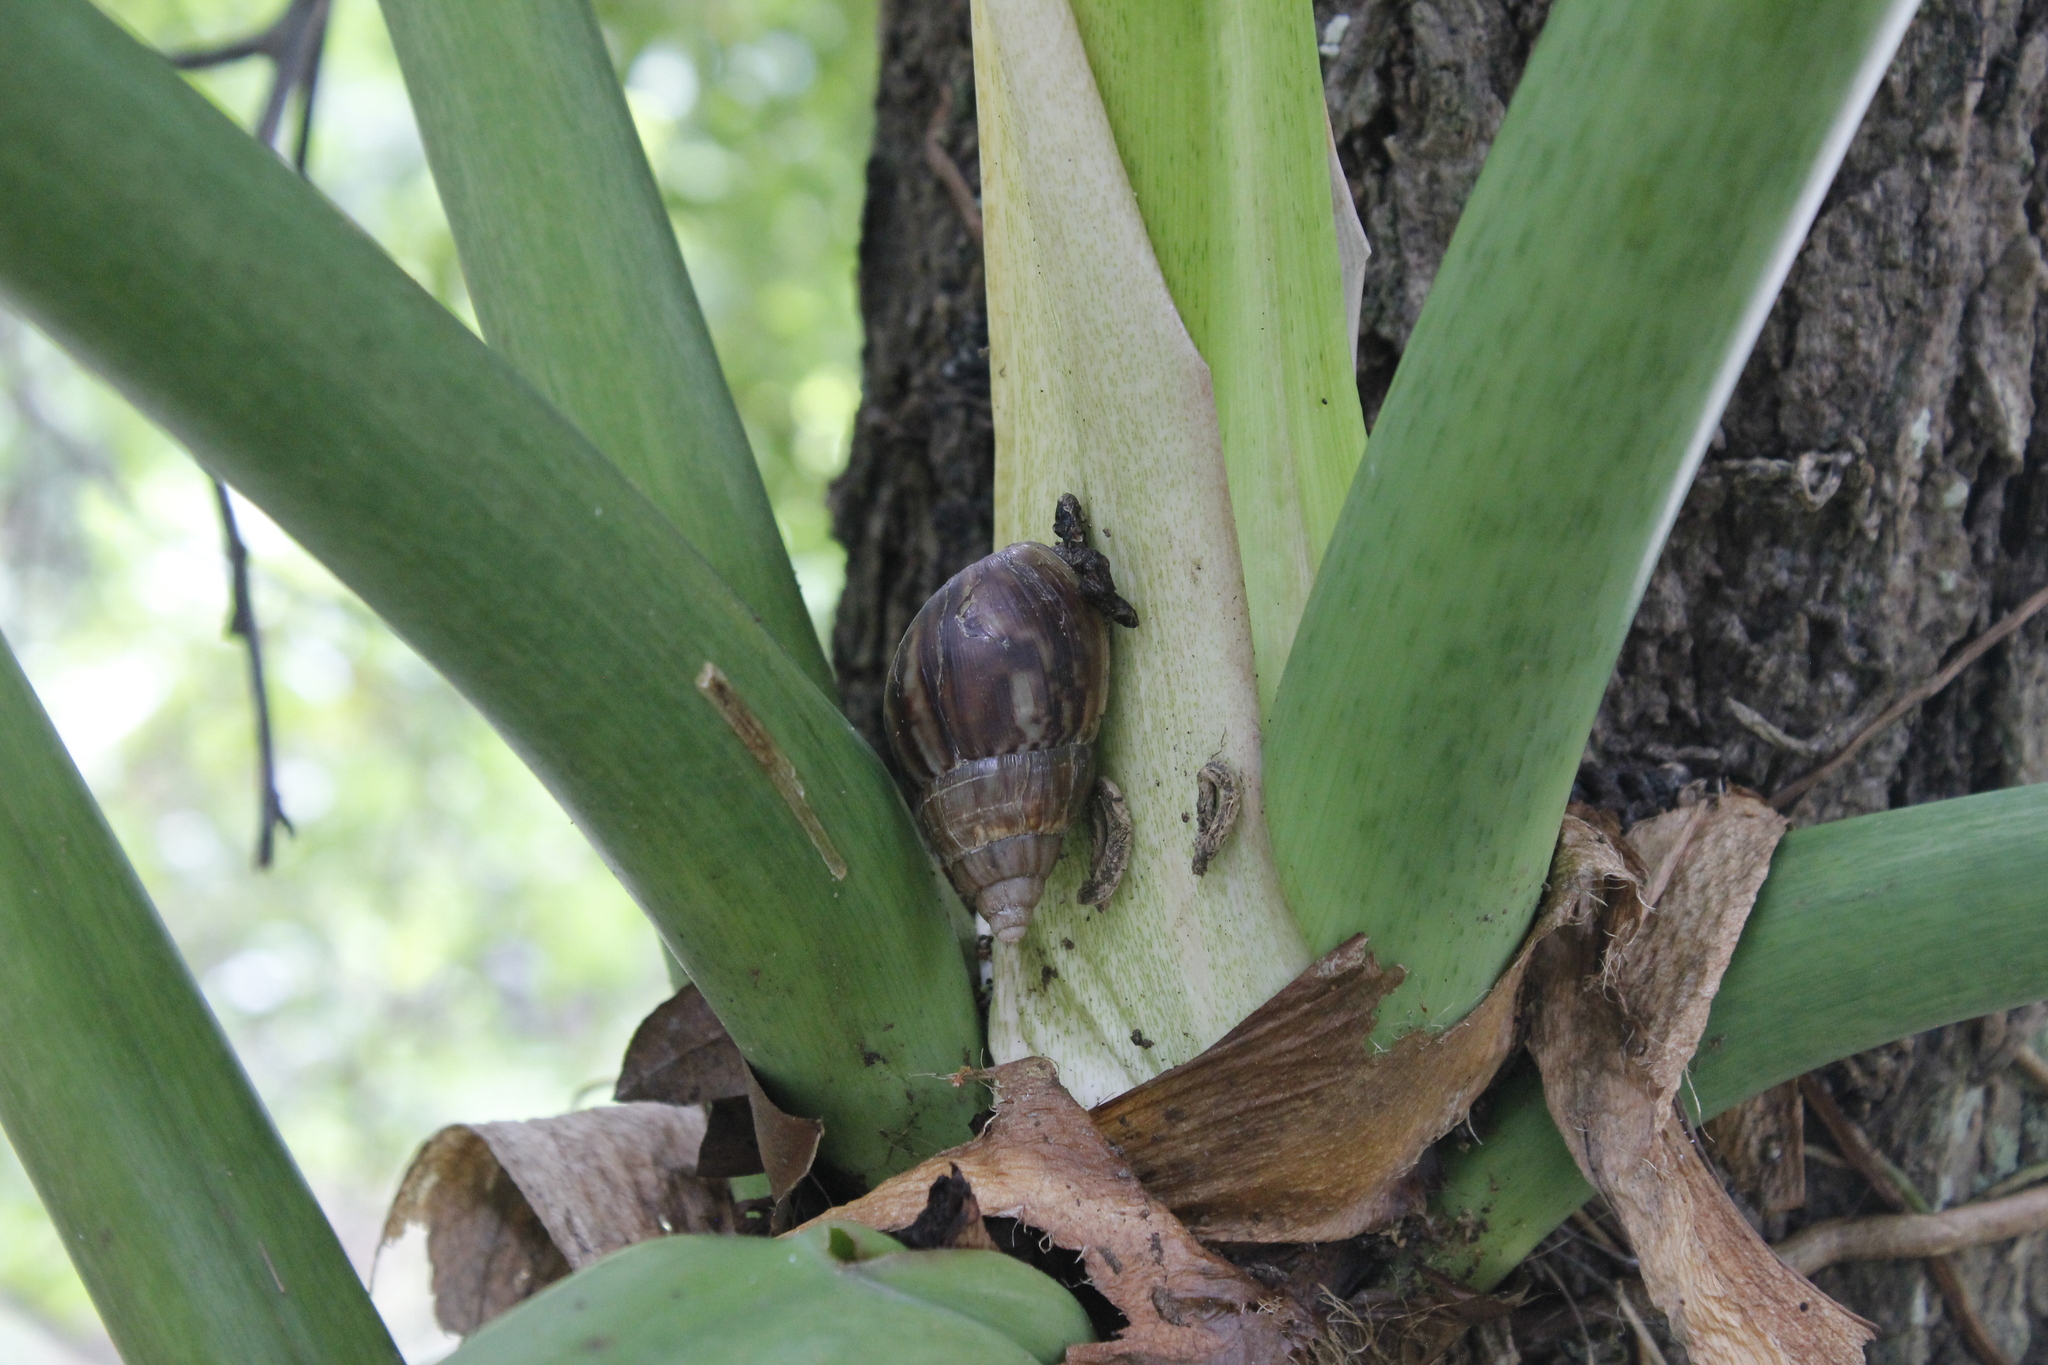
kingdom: Animalia
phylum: Mollusca
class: Gastropoda
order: Stylommatophora
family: Achatinidae
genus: Lissachatina
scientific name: Lissachatina fulica
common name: Giant african snail
